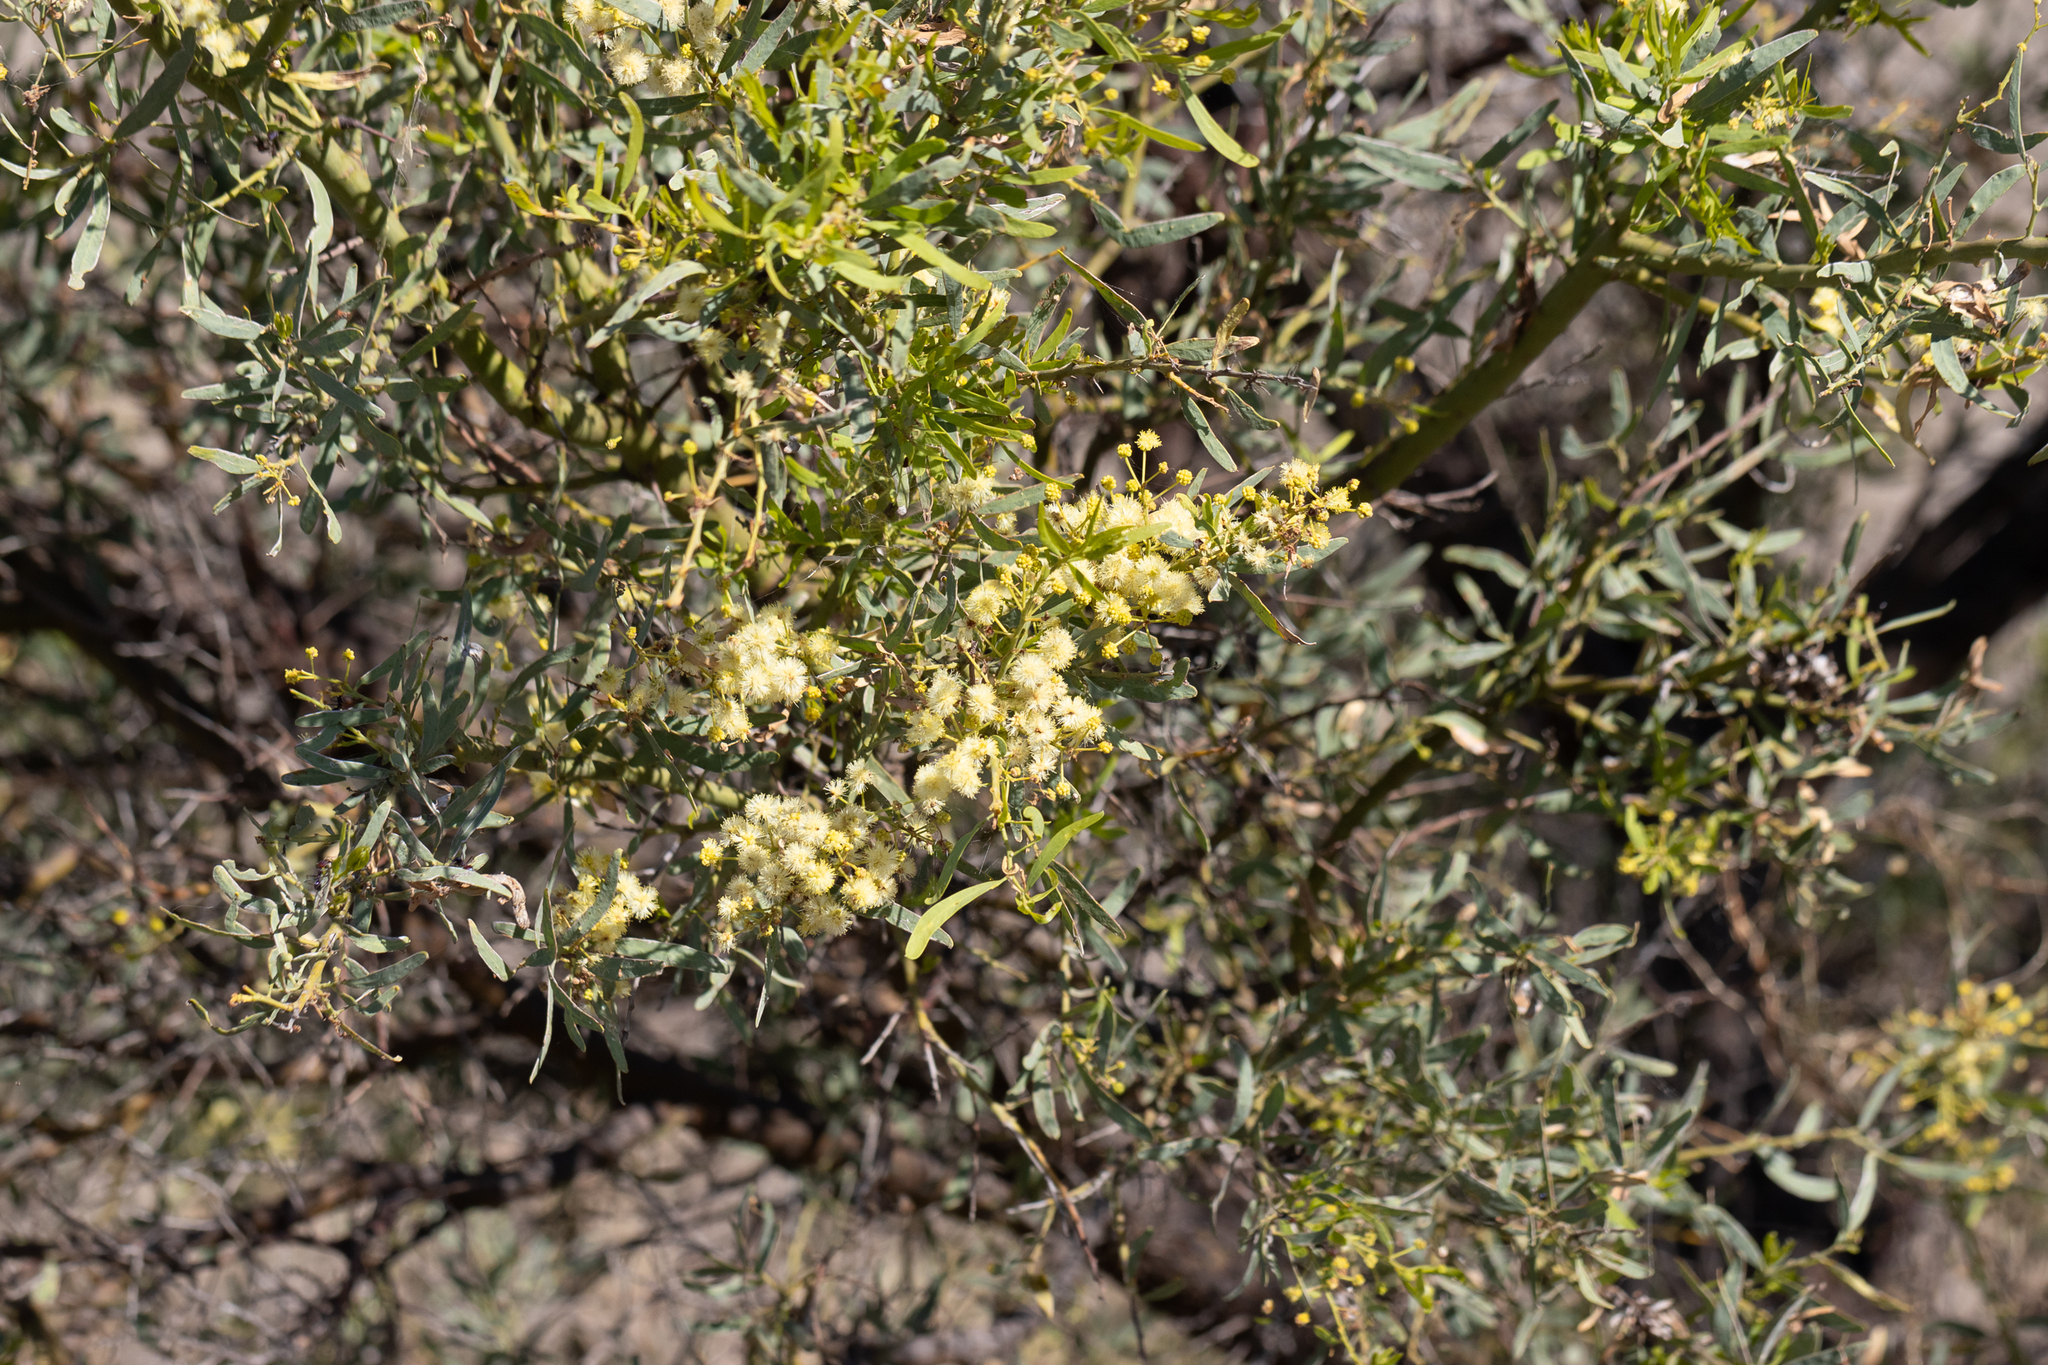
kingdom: Plantae
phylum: Tracheophyta
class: Magnoliopsida
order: Fabales
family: Fabaceae
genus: Acacia
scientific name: Acacia victoriae
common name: Bramble wattle
